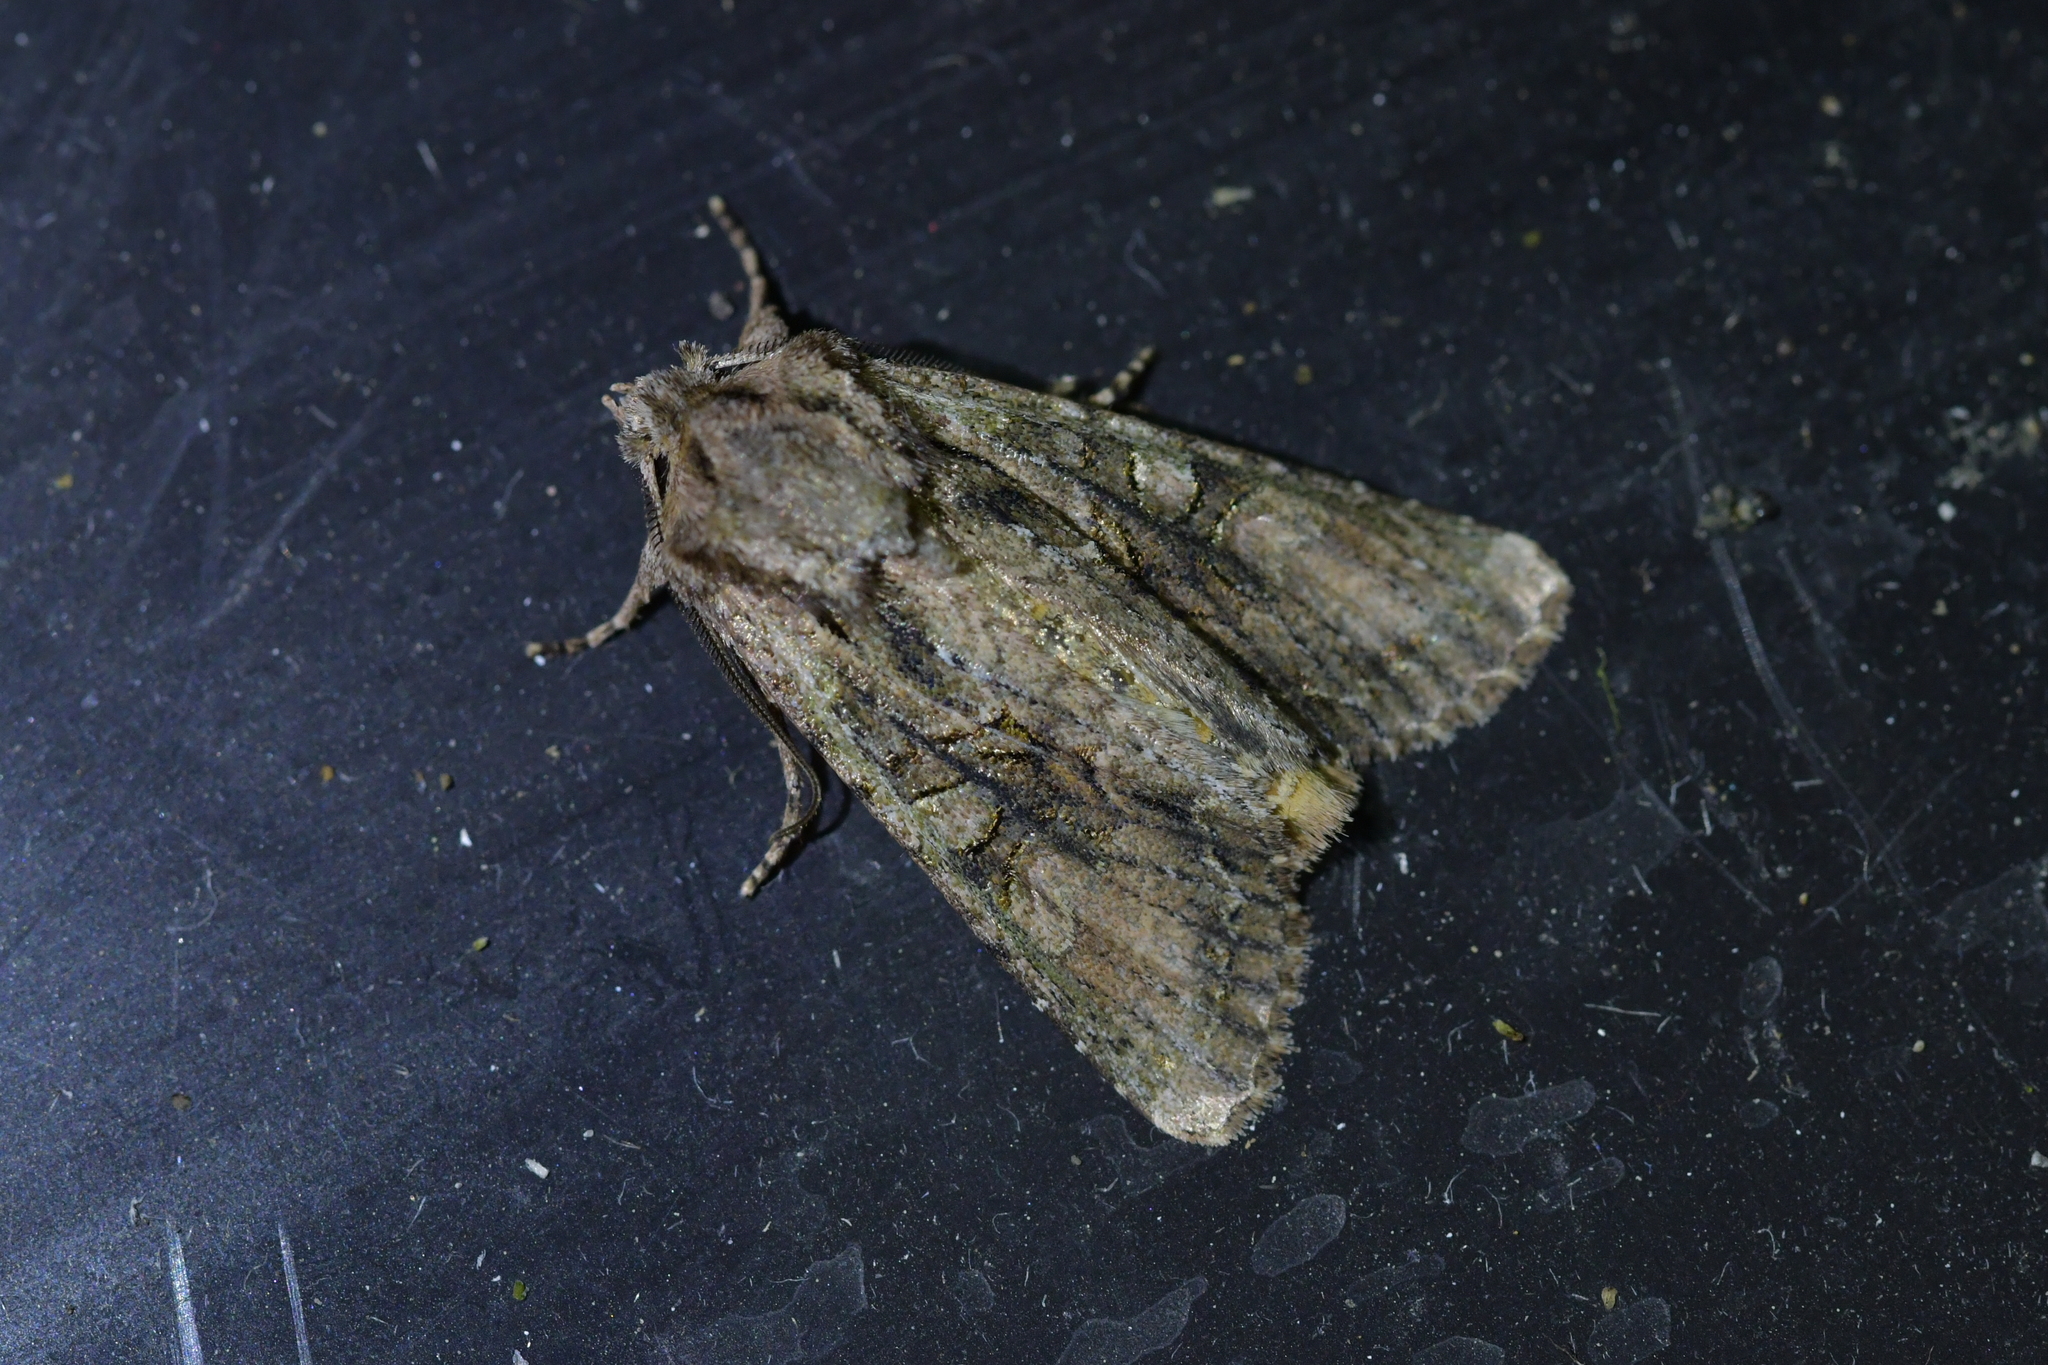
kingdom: Animalia
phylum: Arthropoda
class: Insecta
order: Lepidoptera
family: Noctuidae
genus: Ichneutica
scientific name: Ichneutica mutans
